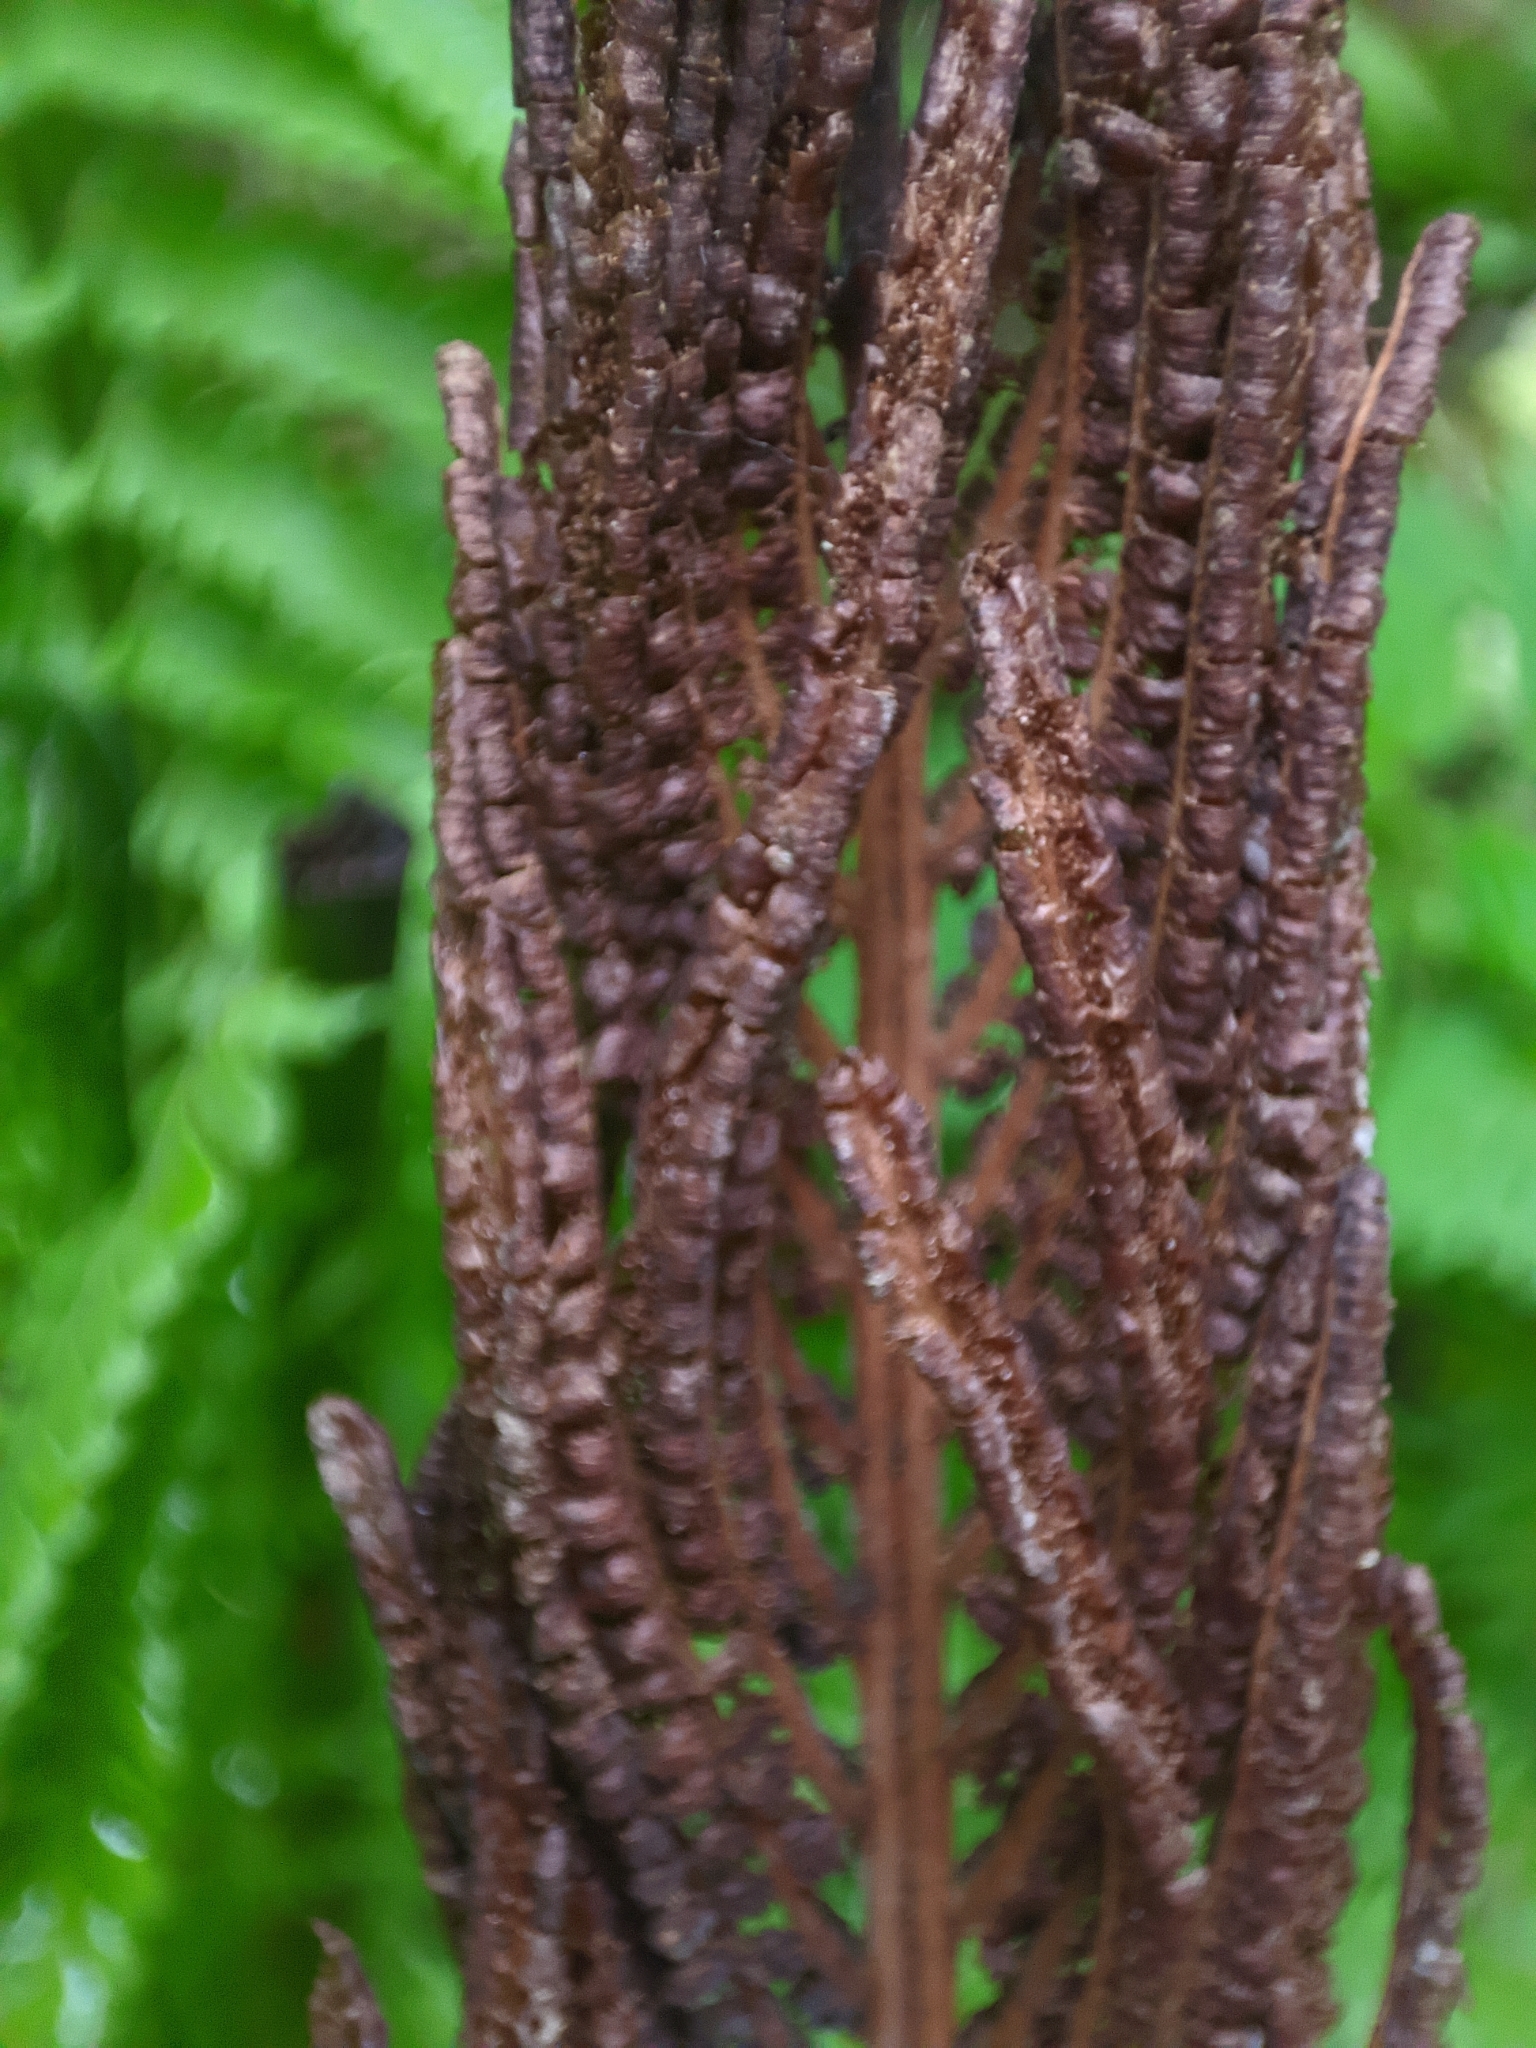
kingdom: Plantae
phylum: Tracheophyta
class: Polypodiopsida
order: Polypodiales
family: Onocleaceae
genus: Matteuccia
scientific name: Matteuccia struthiopteris
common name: Ostrich fern
